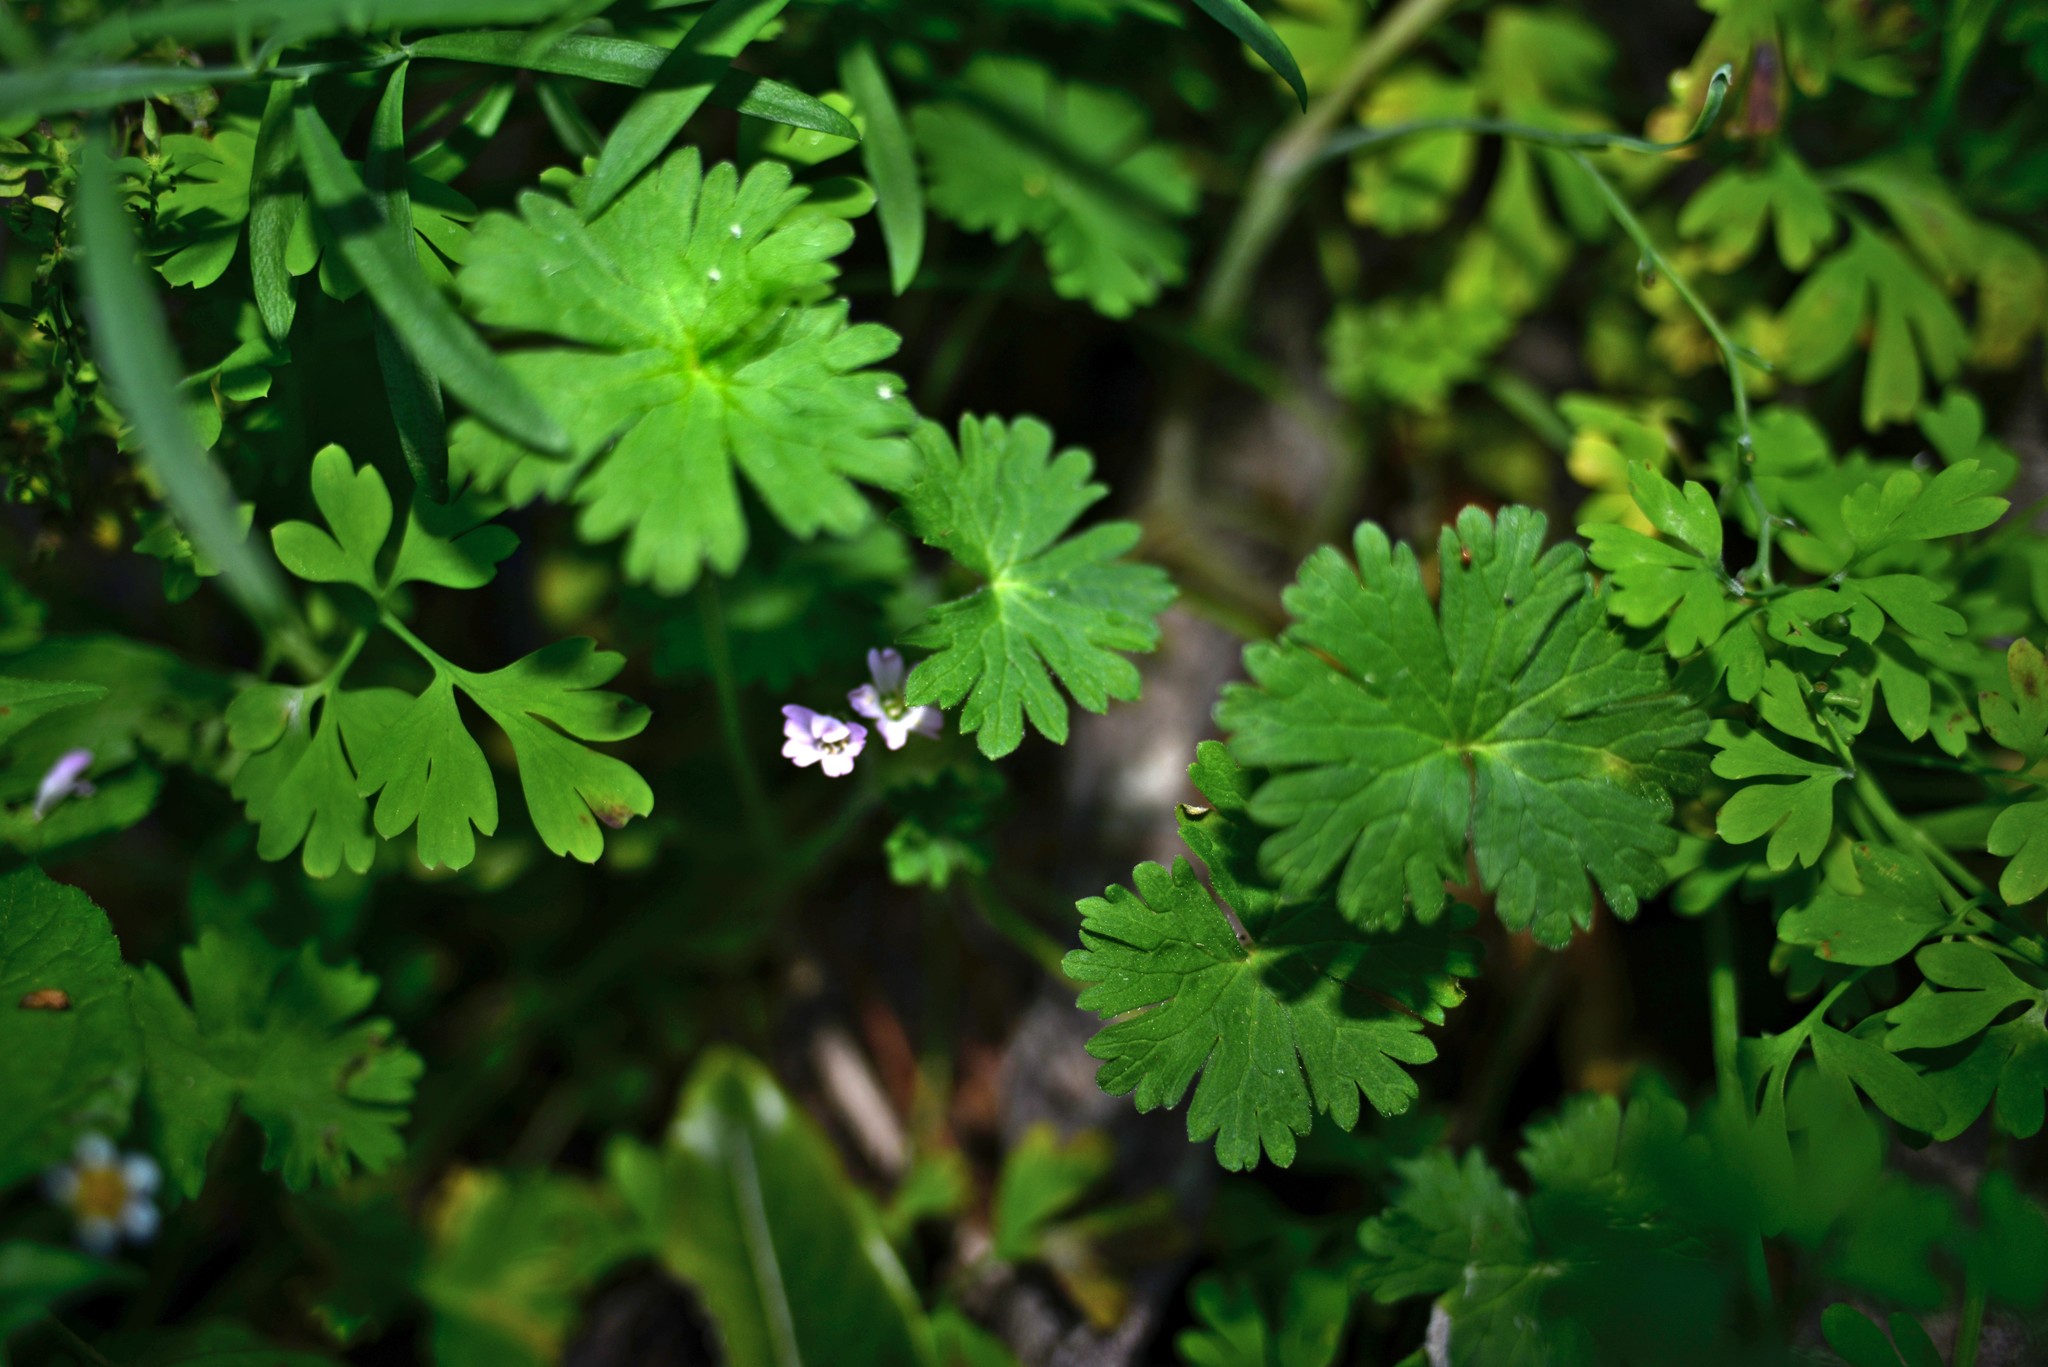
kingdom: Plantae
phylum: Tracheophyta
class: Magnoliopsida
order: Geraniales
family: Geraniaceae
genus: Geranium
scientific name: Geranium molle
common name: Dove's-foot crane's-bill
